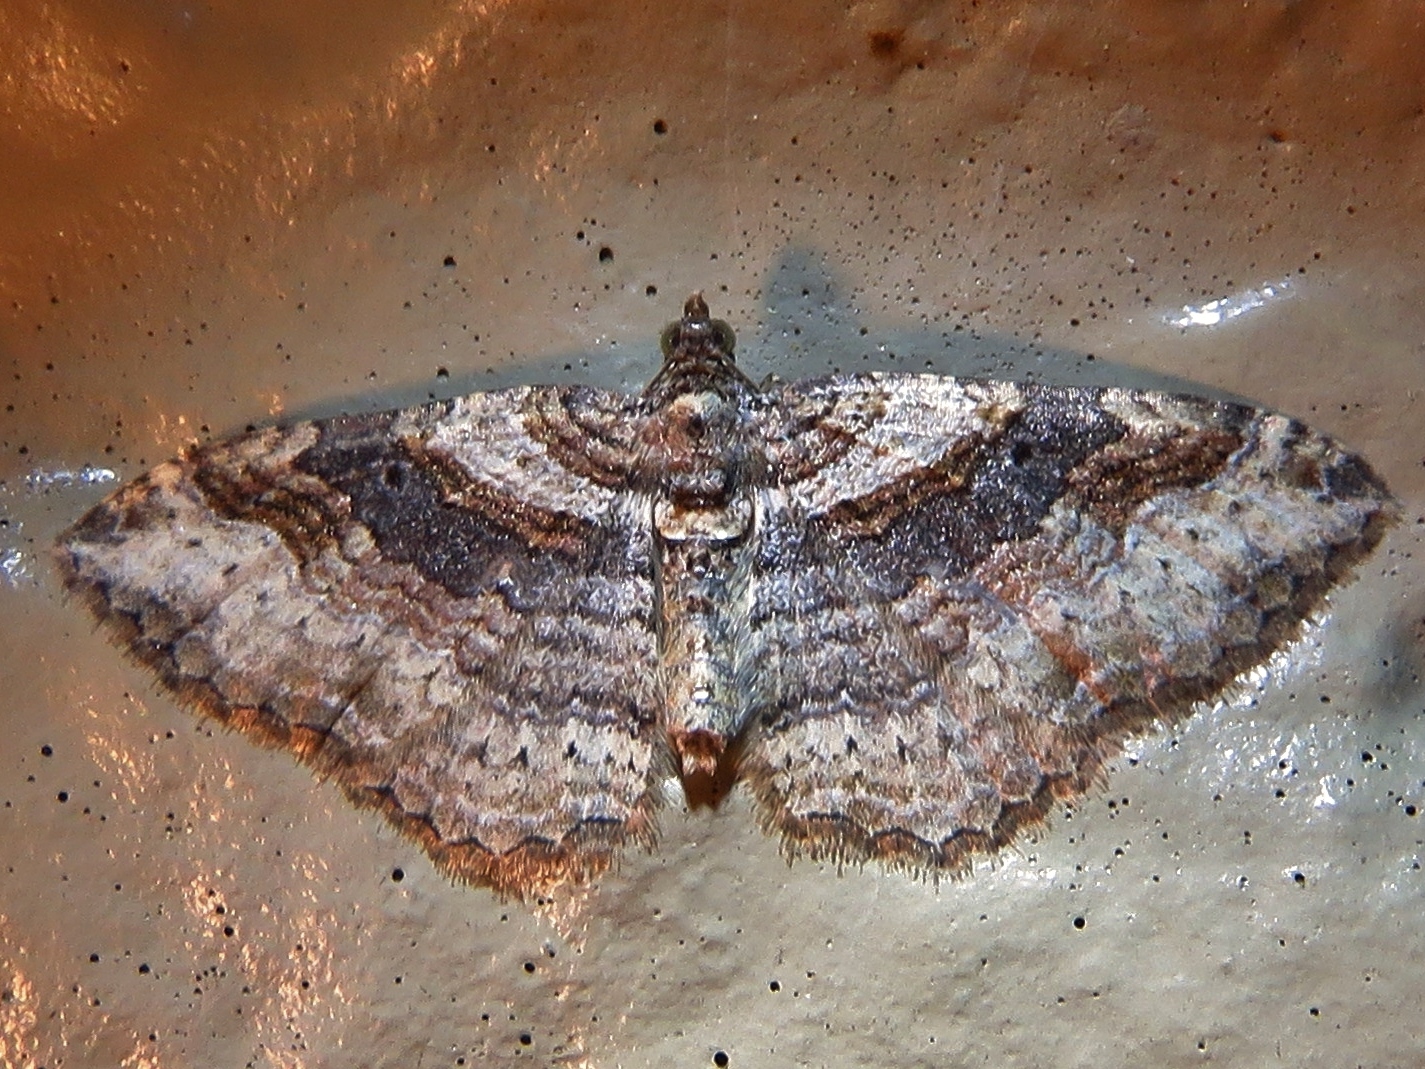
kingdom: Animalia
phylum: Arthropoda
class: Insecta
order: Lepidoptera
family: Geometridae
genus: Costaconvexa
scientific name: Costaconvexa centrostrigaria
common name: Bent-line carpet
